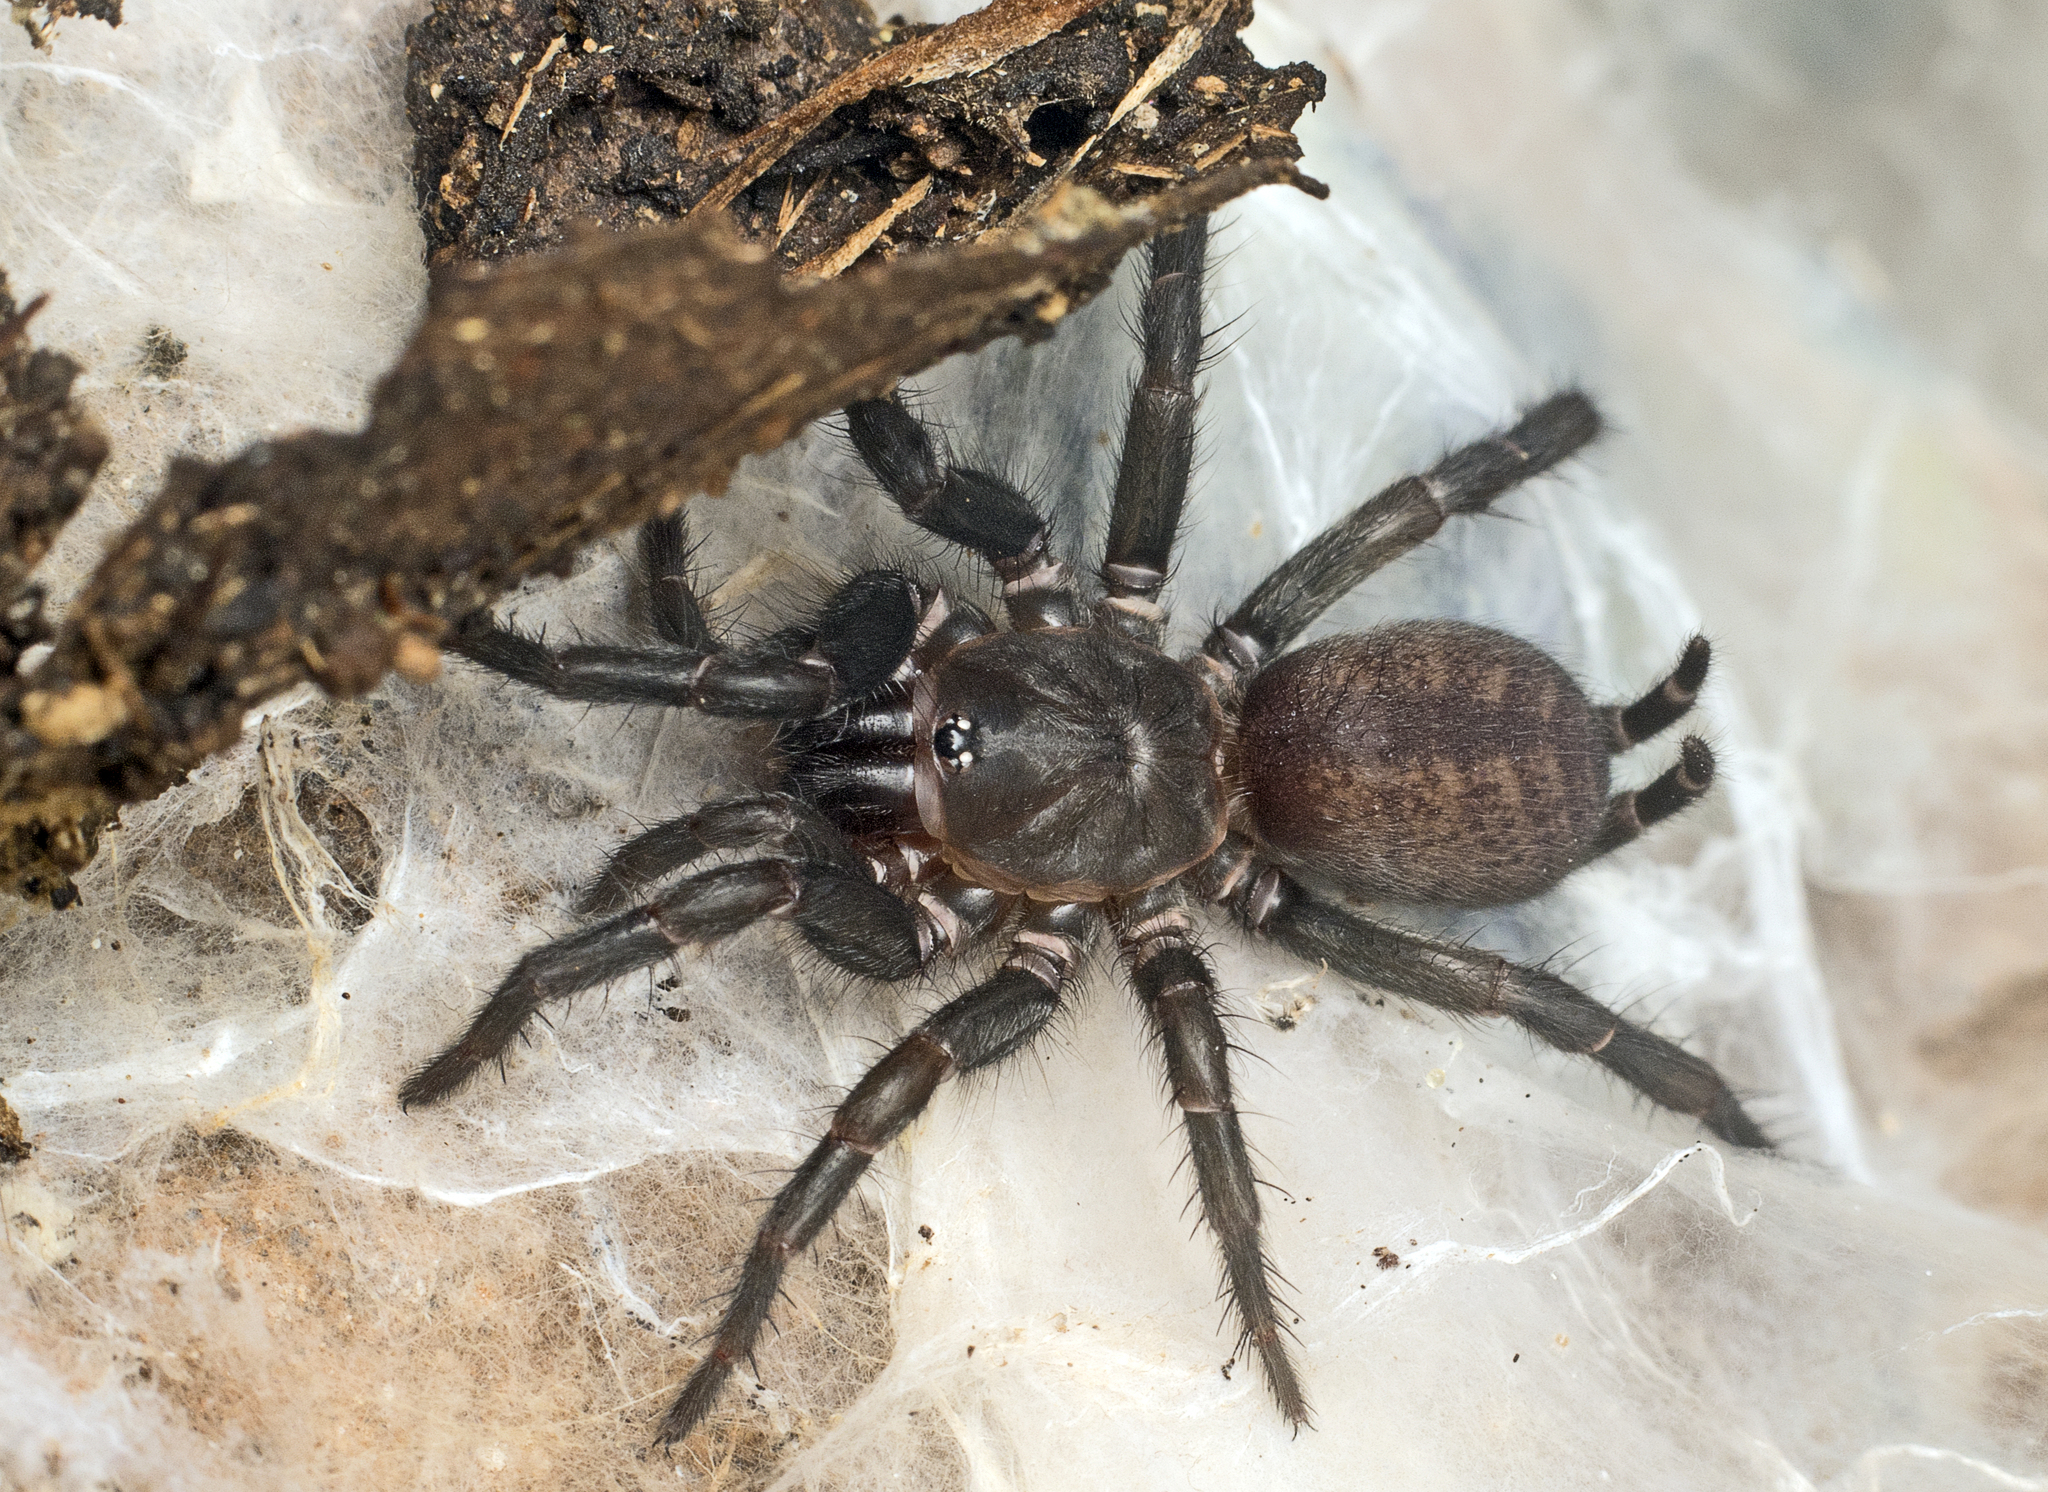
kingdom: Animalia
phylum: Arthropoda
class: Arachnida
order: Araneae
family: Euagridae
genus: Australothele
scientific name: Australothele jamiesoni
